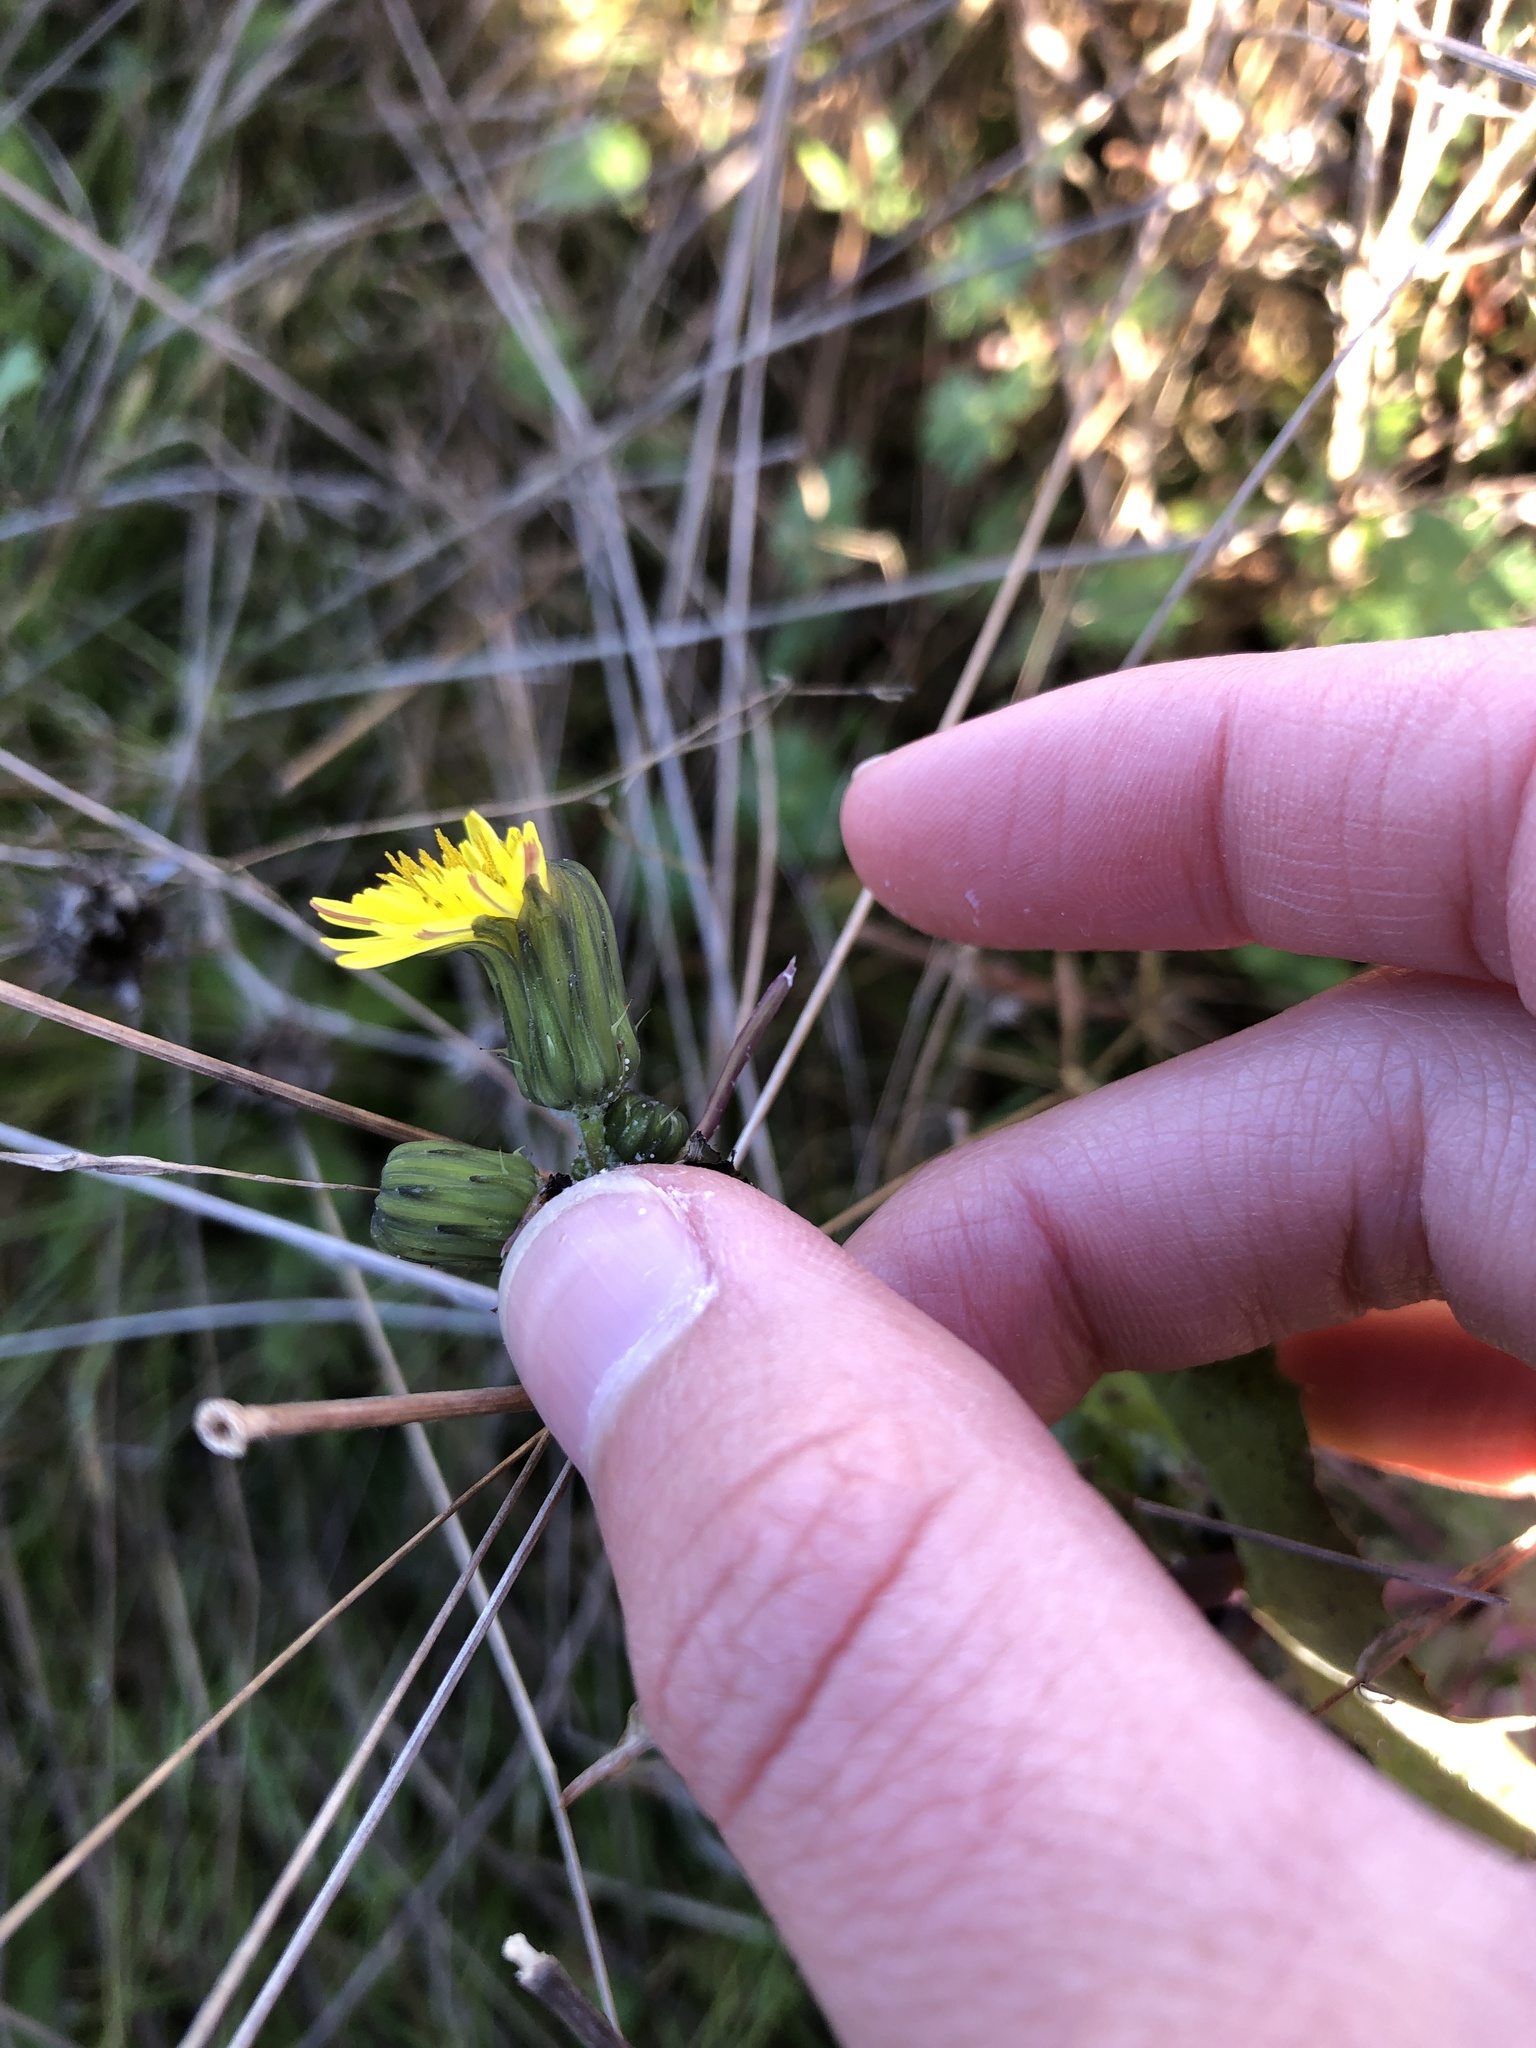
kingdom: Plantae
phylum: Tracheophyta
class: Magnoliopsida
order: Asterales
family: Asteraceae
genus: Sonchus
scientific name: Sonchus oleraceus
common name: Common sowthistle
